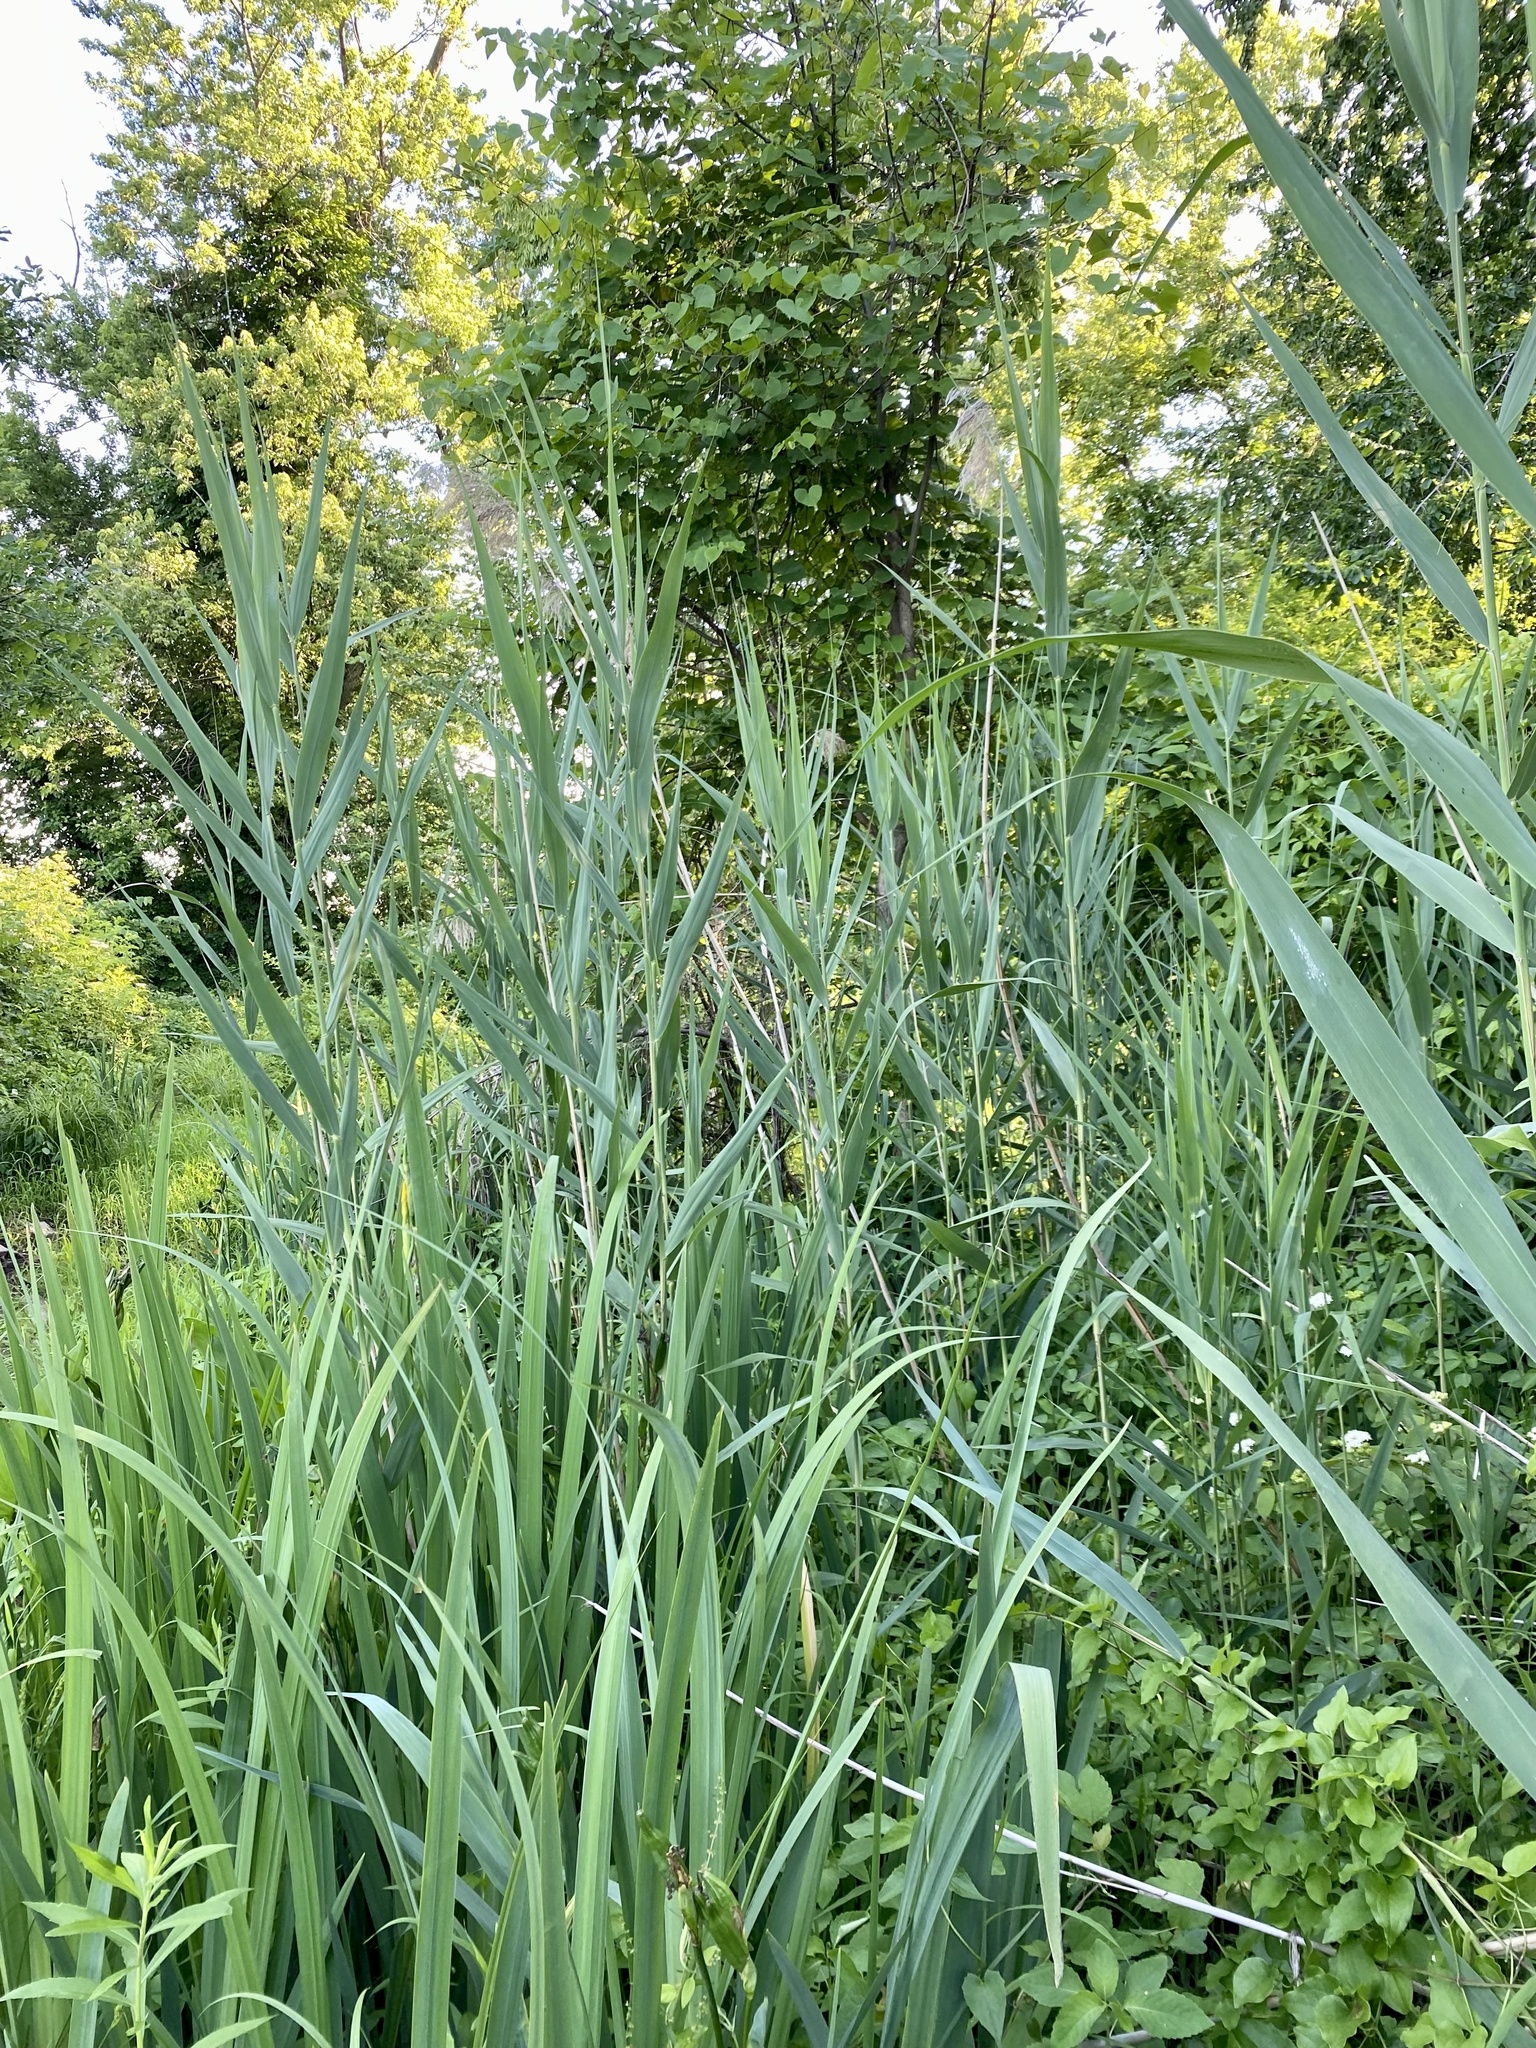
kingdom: Plantae
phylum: Tracheophyta
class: Liliopsida
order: Poales
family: Poaceae
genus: Phragmites
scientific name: Phragmites australis
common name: Common reed
